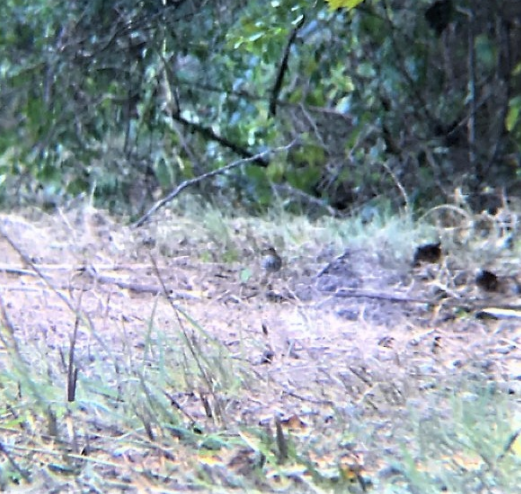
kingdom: Animalia
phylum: Chordata
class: Aves
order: Passeriformes
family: Parulidae
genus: Seiurus
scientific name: Seiurus aurocapilla
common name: Ovenbird
